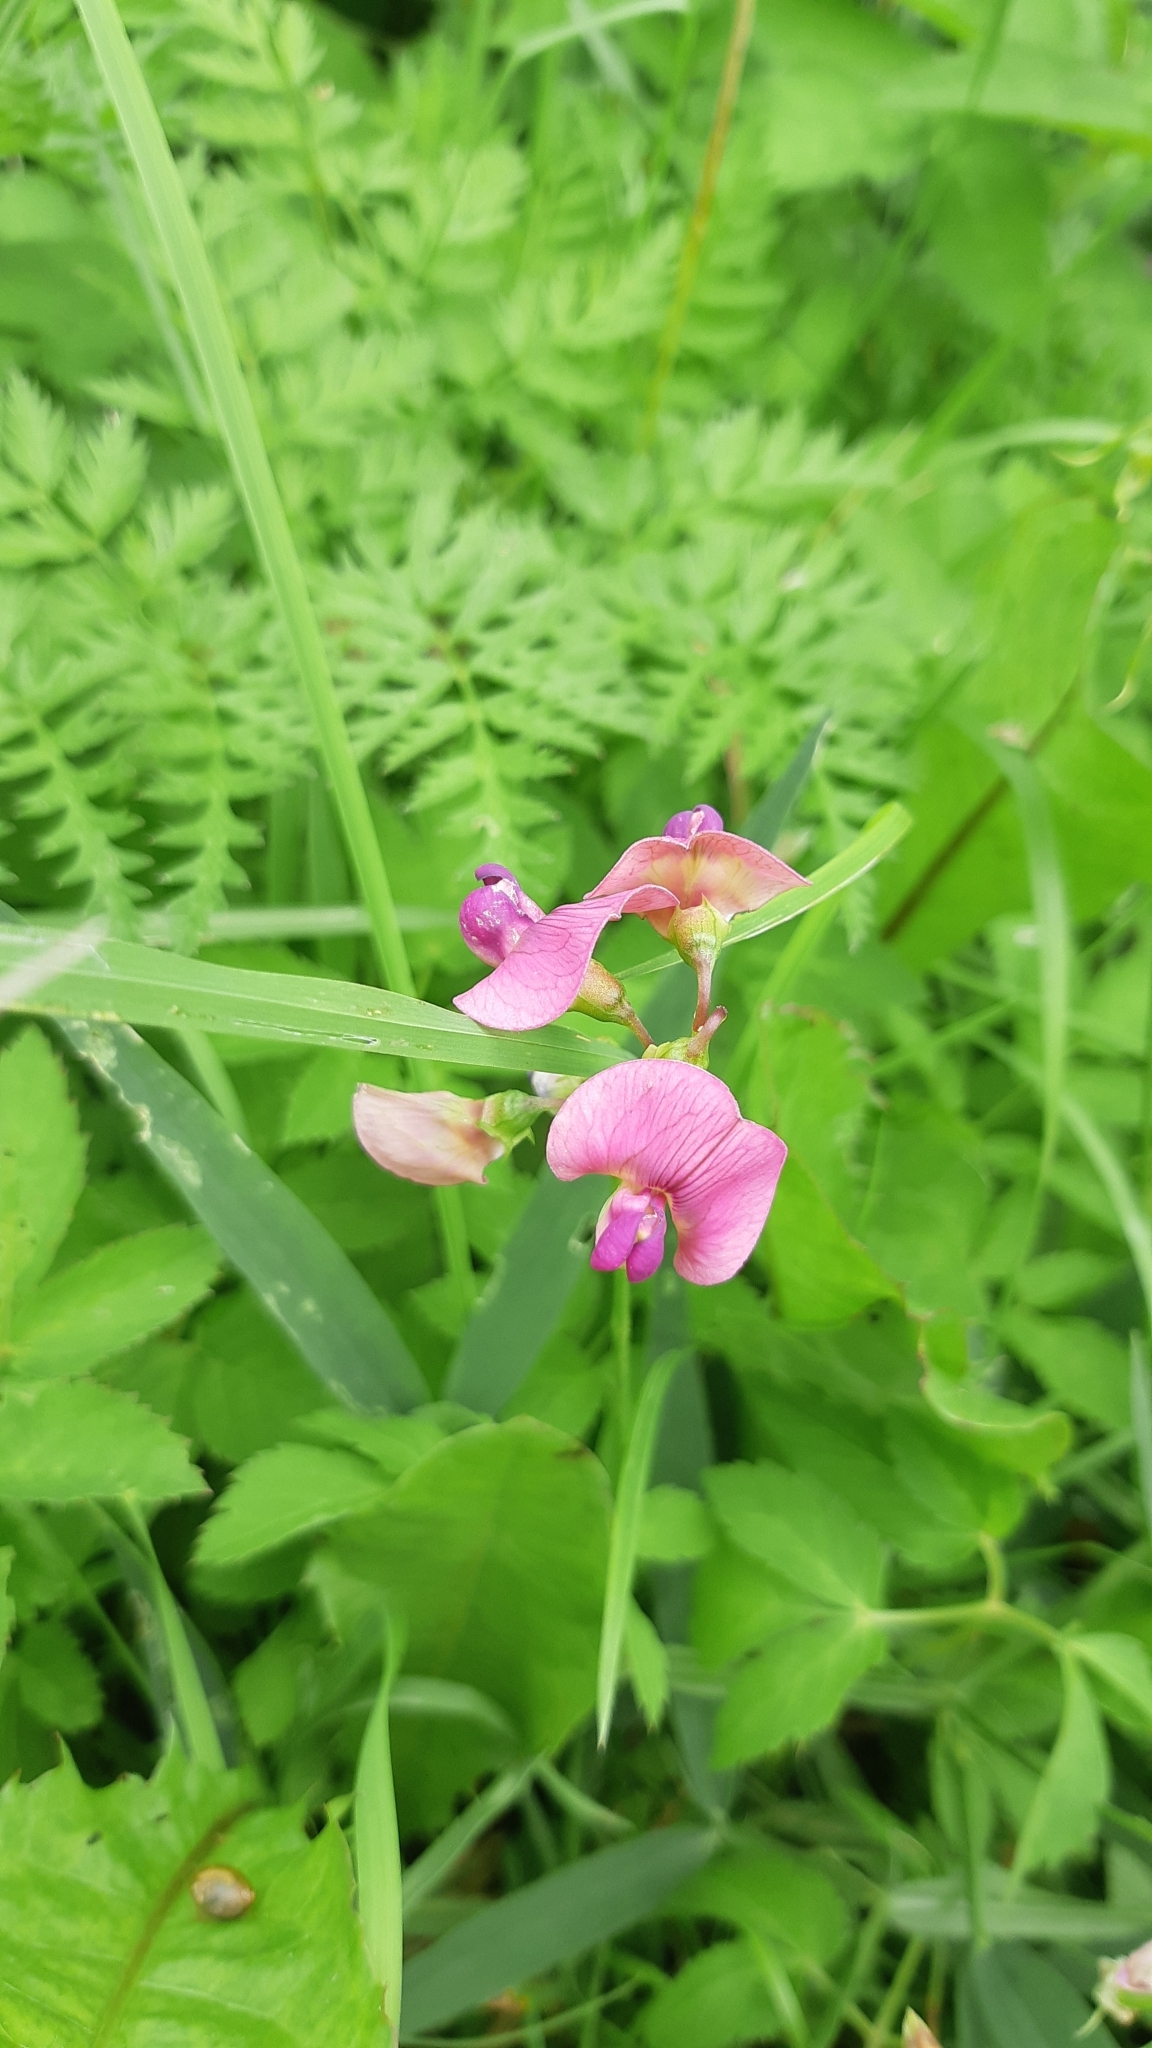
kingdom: Plantae
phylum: Tracheophyta
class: Magnoliopsida
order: Fabales
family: Fabaceae
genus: Lathyrus
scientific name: Lathyrus sylvestris
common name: Flat pea
